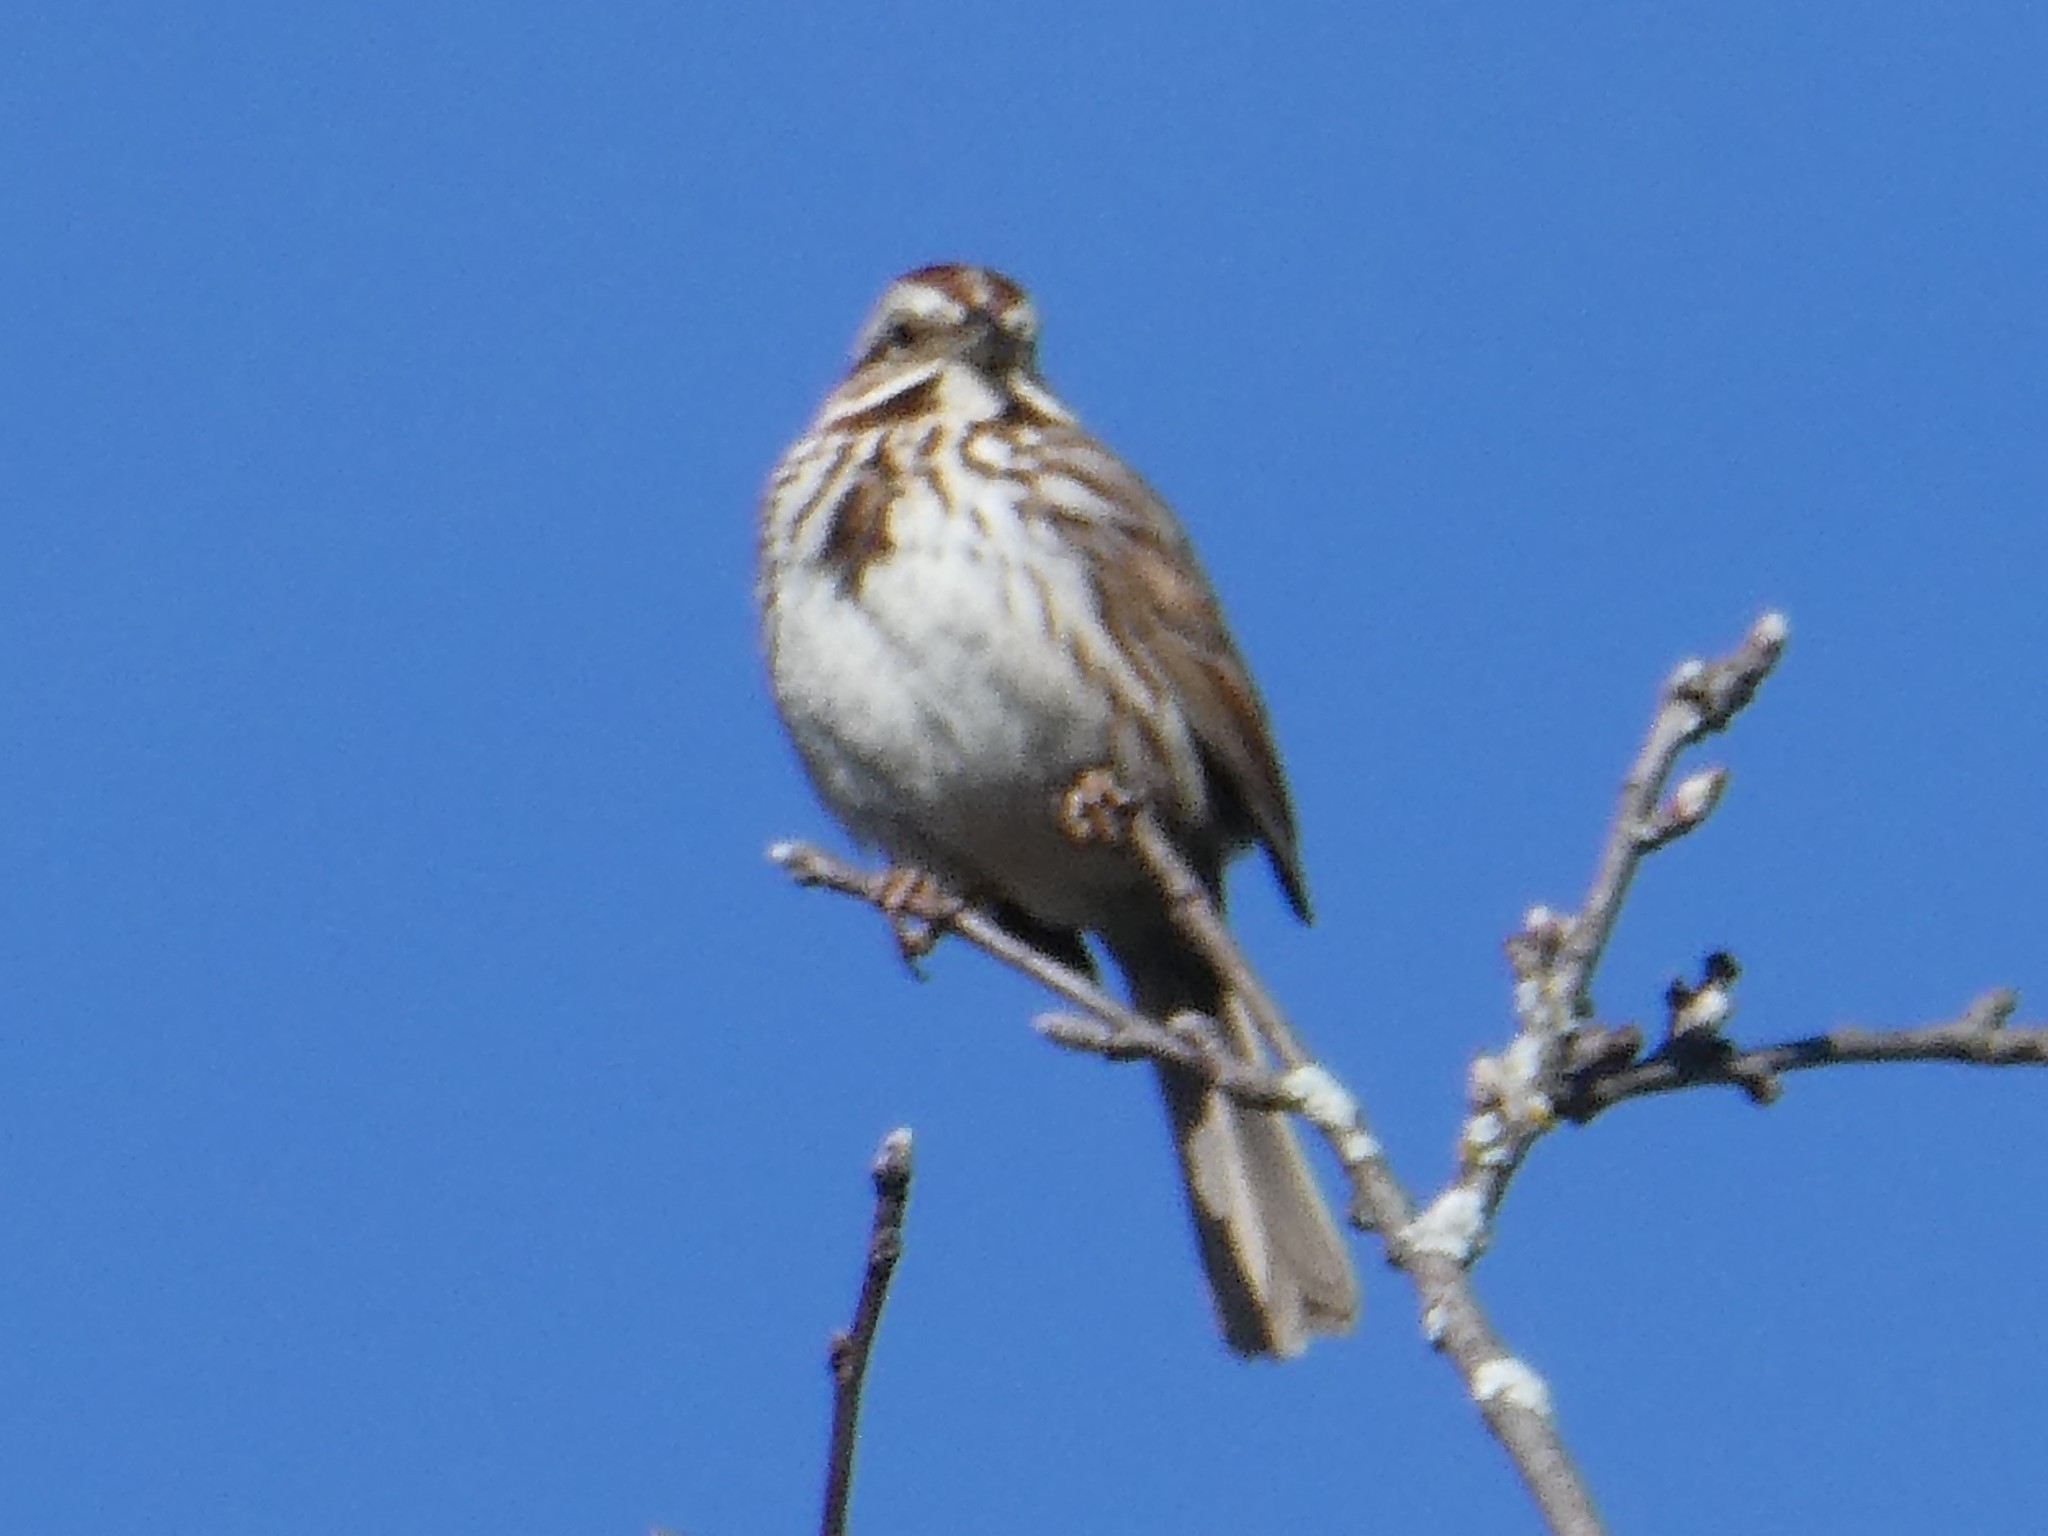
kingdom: Animalia
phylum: Chordata
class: Aves
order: Passeriformes
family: Passerellidae
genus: Melospiza
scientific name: Melospiza melodia
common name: Song sparrow
